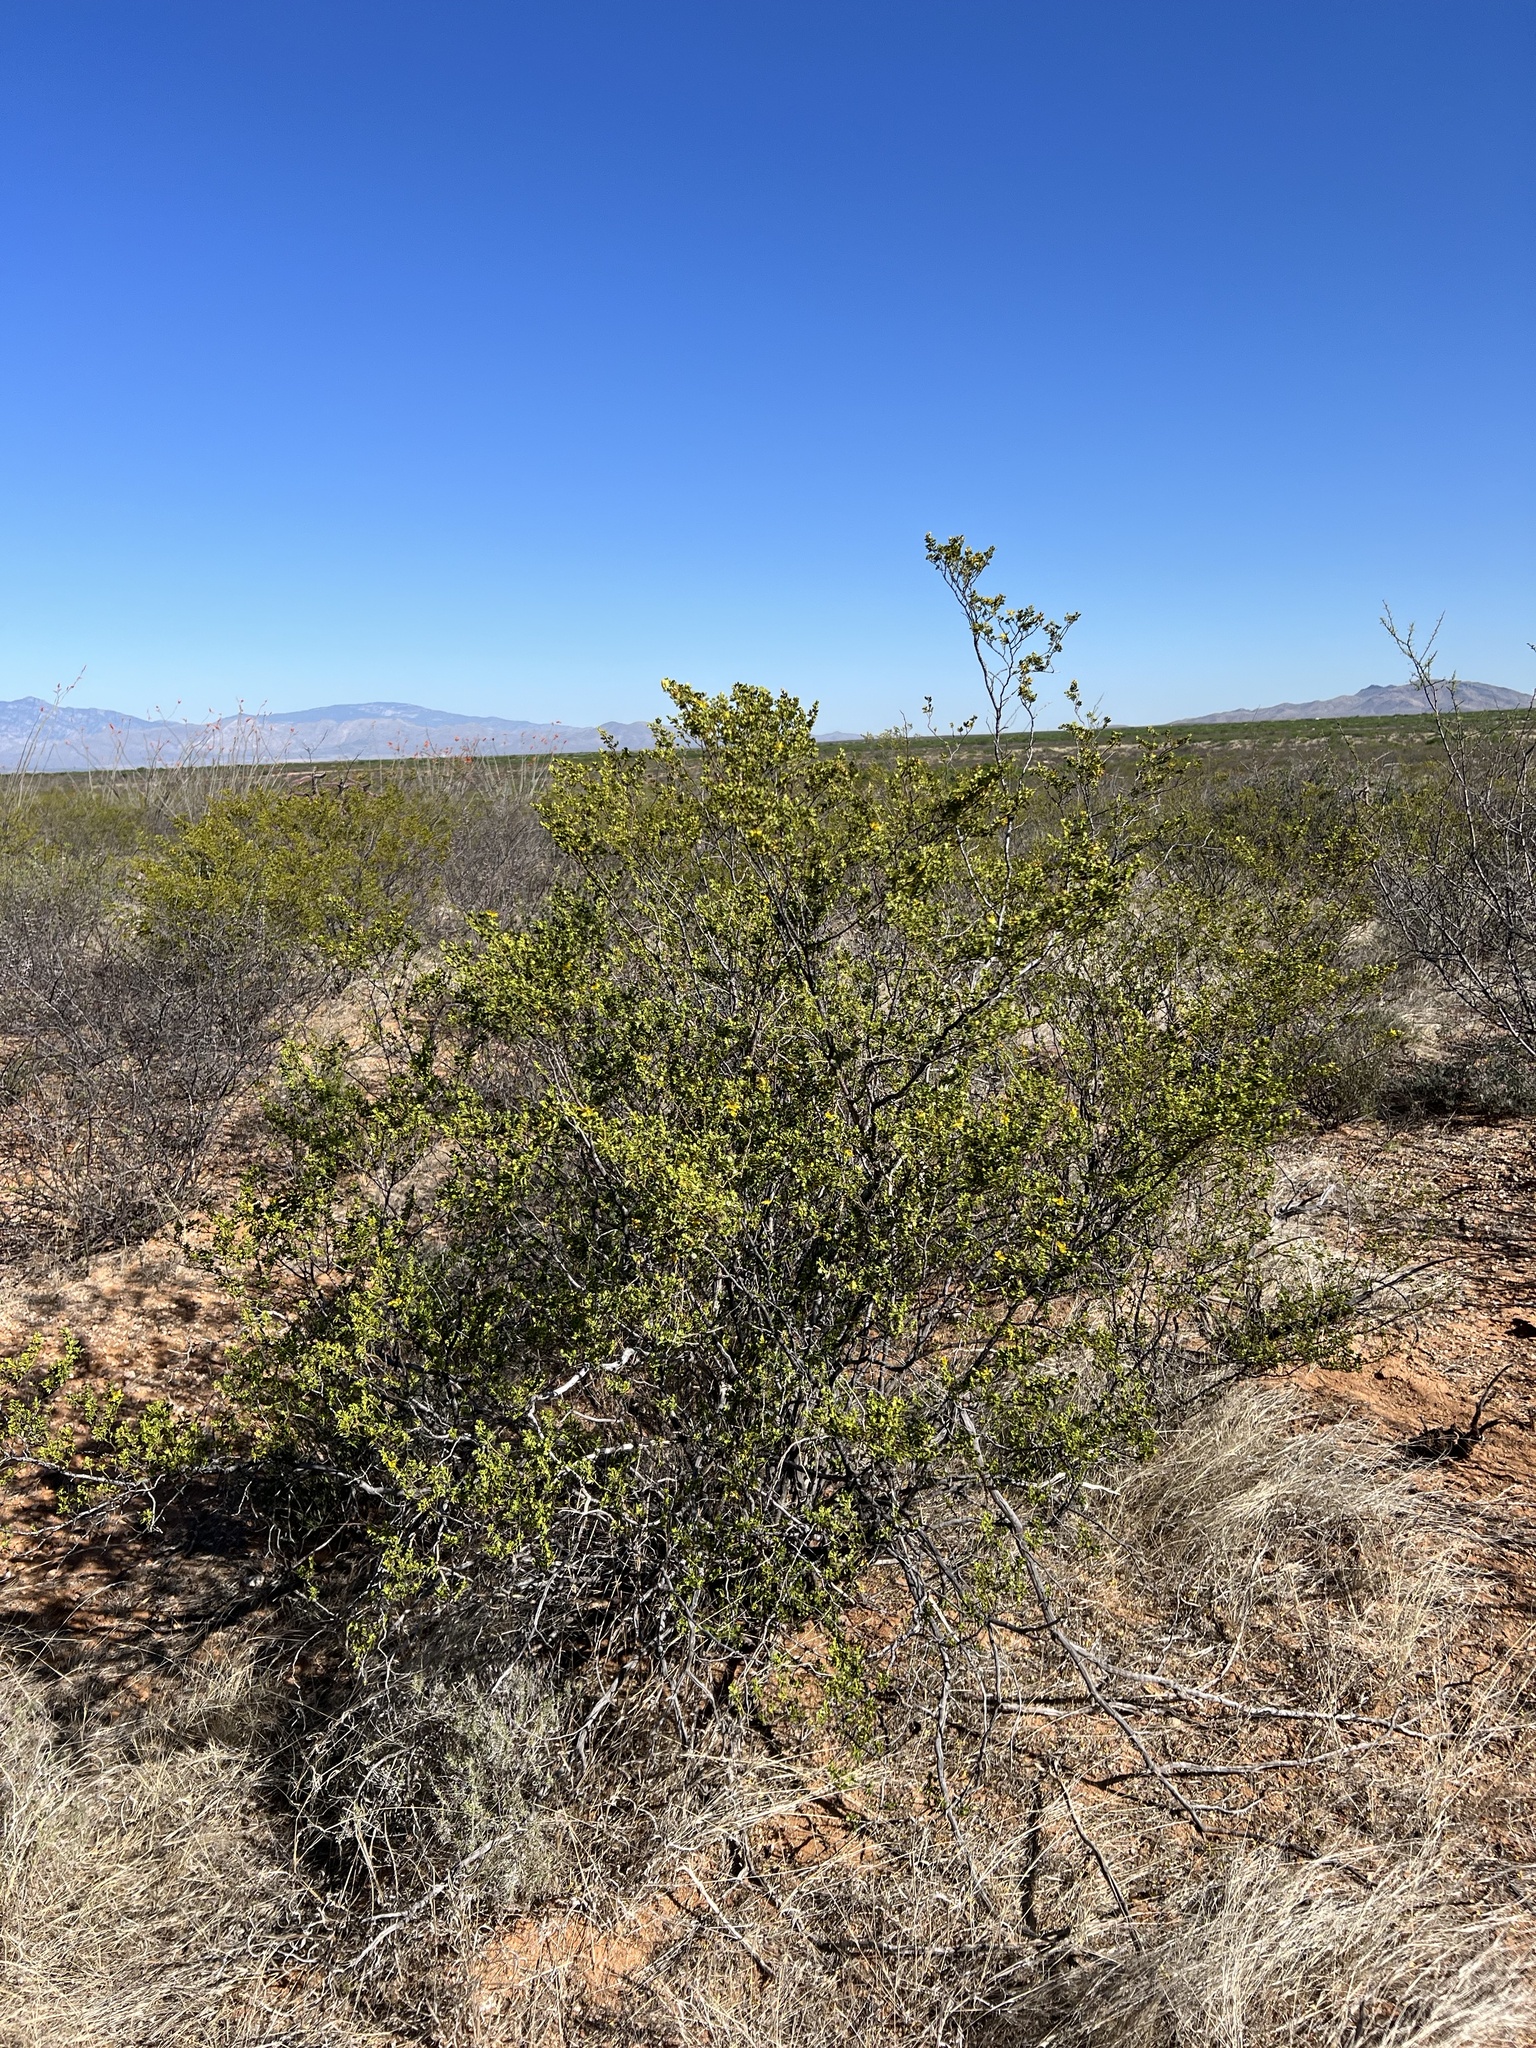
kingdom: Plantae
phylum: Tracheophyta
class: Magnoliopsida
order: Zygophyllales
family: Zygophyllaceae
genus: Larrea
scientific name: Larrea tridentata
